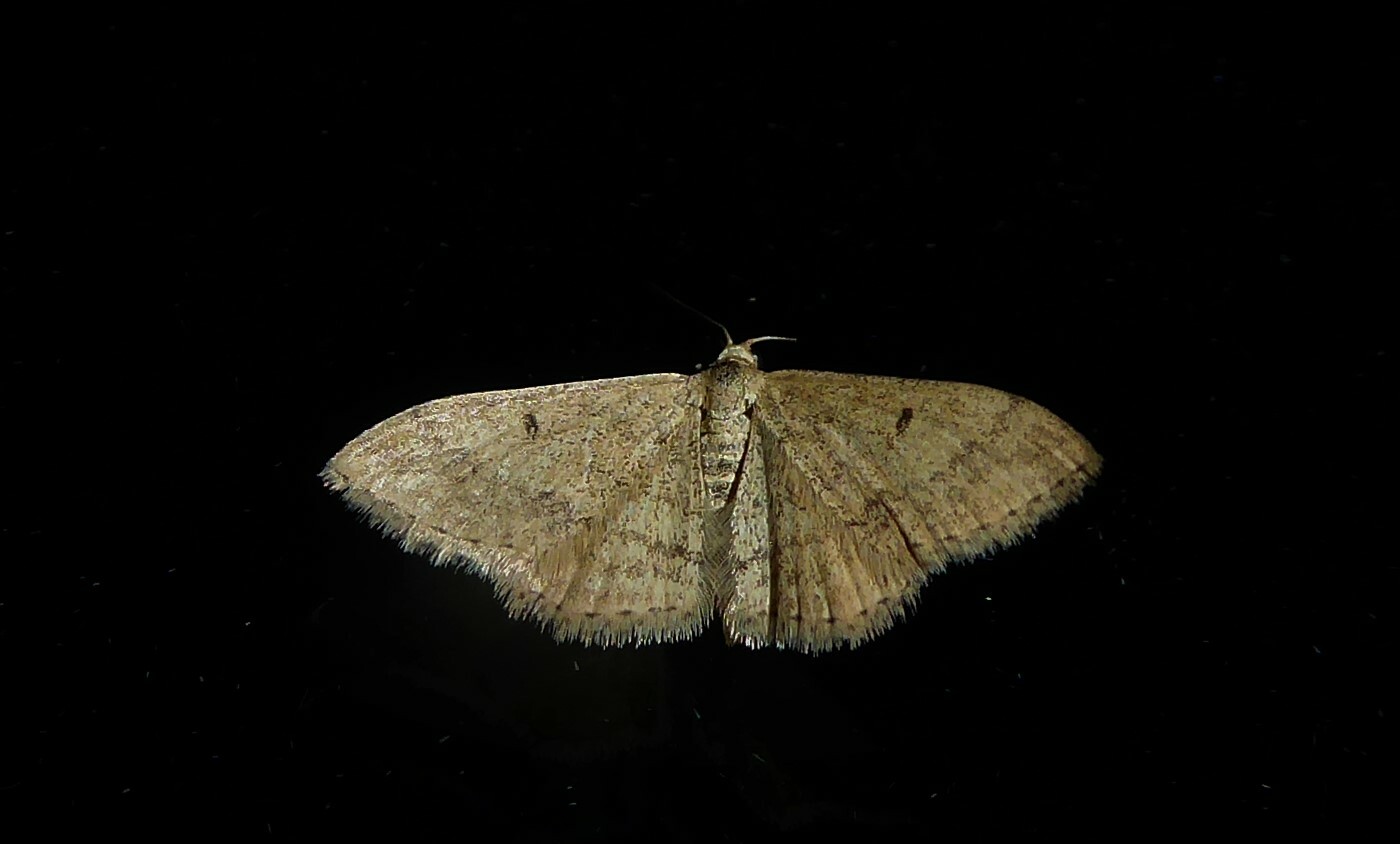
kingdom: Animalia
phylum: Arthropoda
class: Insecta
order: Lepidoptera
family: Geometridae
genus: Scopula
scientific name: Scopula rubraria
